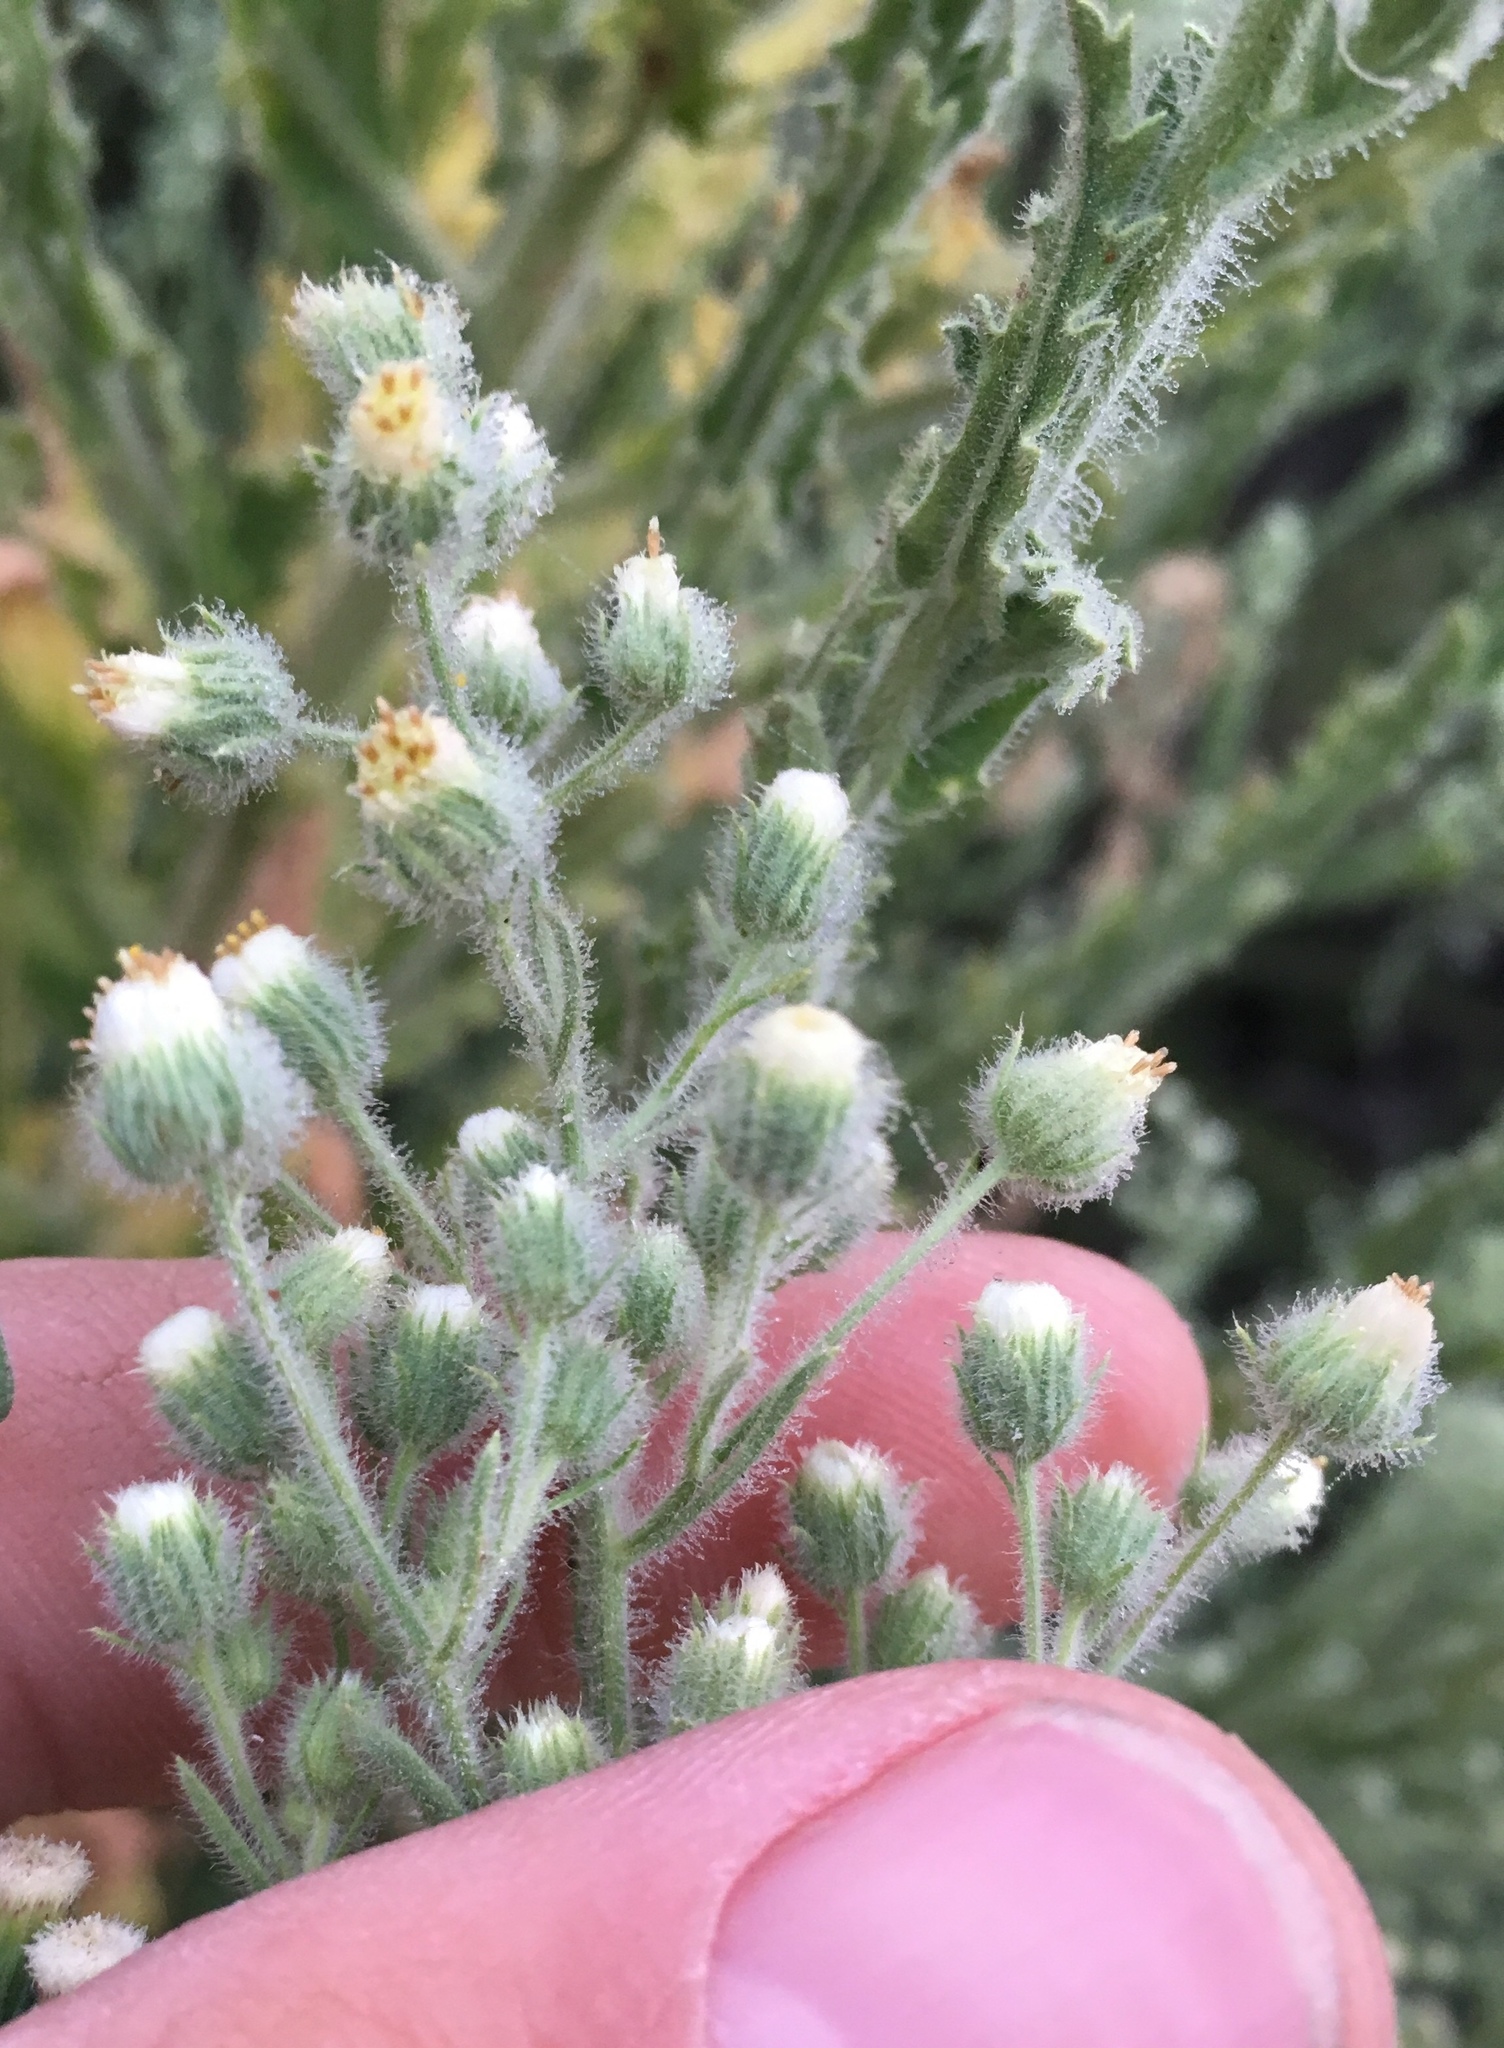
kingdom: Plantae
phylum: Tracheophyta
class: Magnoliopsida
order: Asterales
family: Asteraceae
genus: Laennecia
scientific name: Laennecia coulteri
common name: Coulter's woolwort
